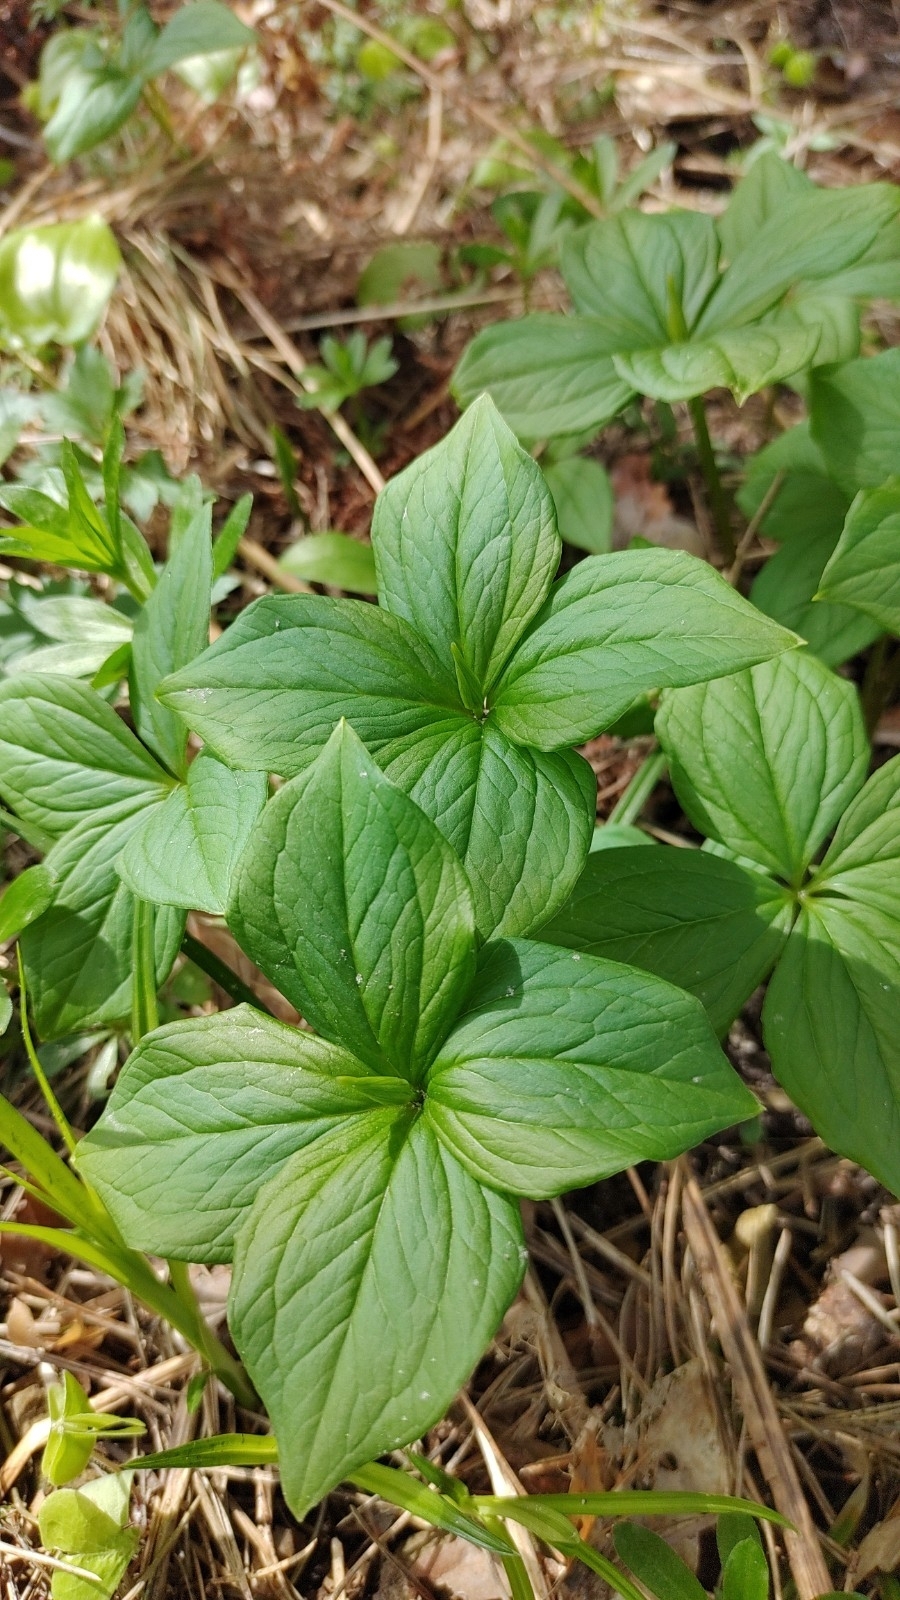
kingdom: Plantae
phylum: Tracheophyta
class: Liliopsida
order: Liliales
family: Melanthiaceae
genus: Paris
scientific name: Paris quadrifolia
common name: Herb-paris
